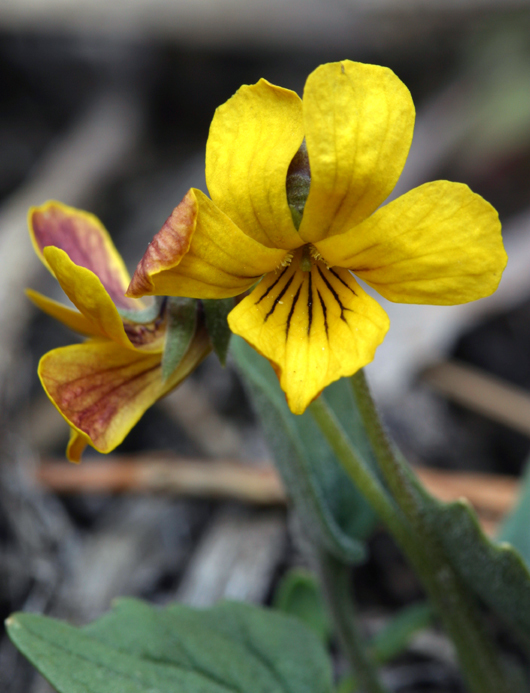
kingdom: Plantae
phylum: Tracheophyta
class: Magnoliopsida
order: Malpighiales
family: Violaceae
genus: Viola
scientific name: Viola purpurea
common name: Pine violet
